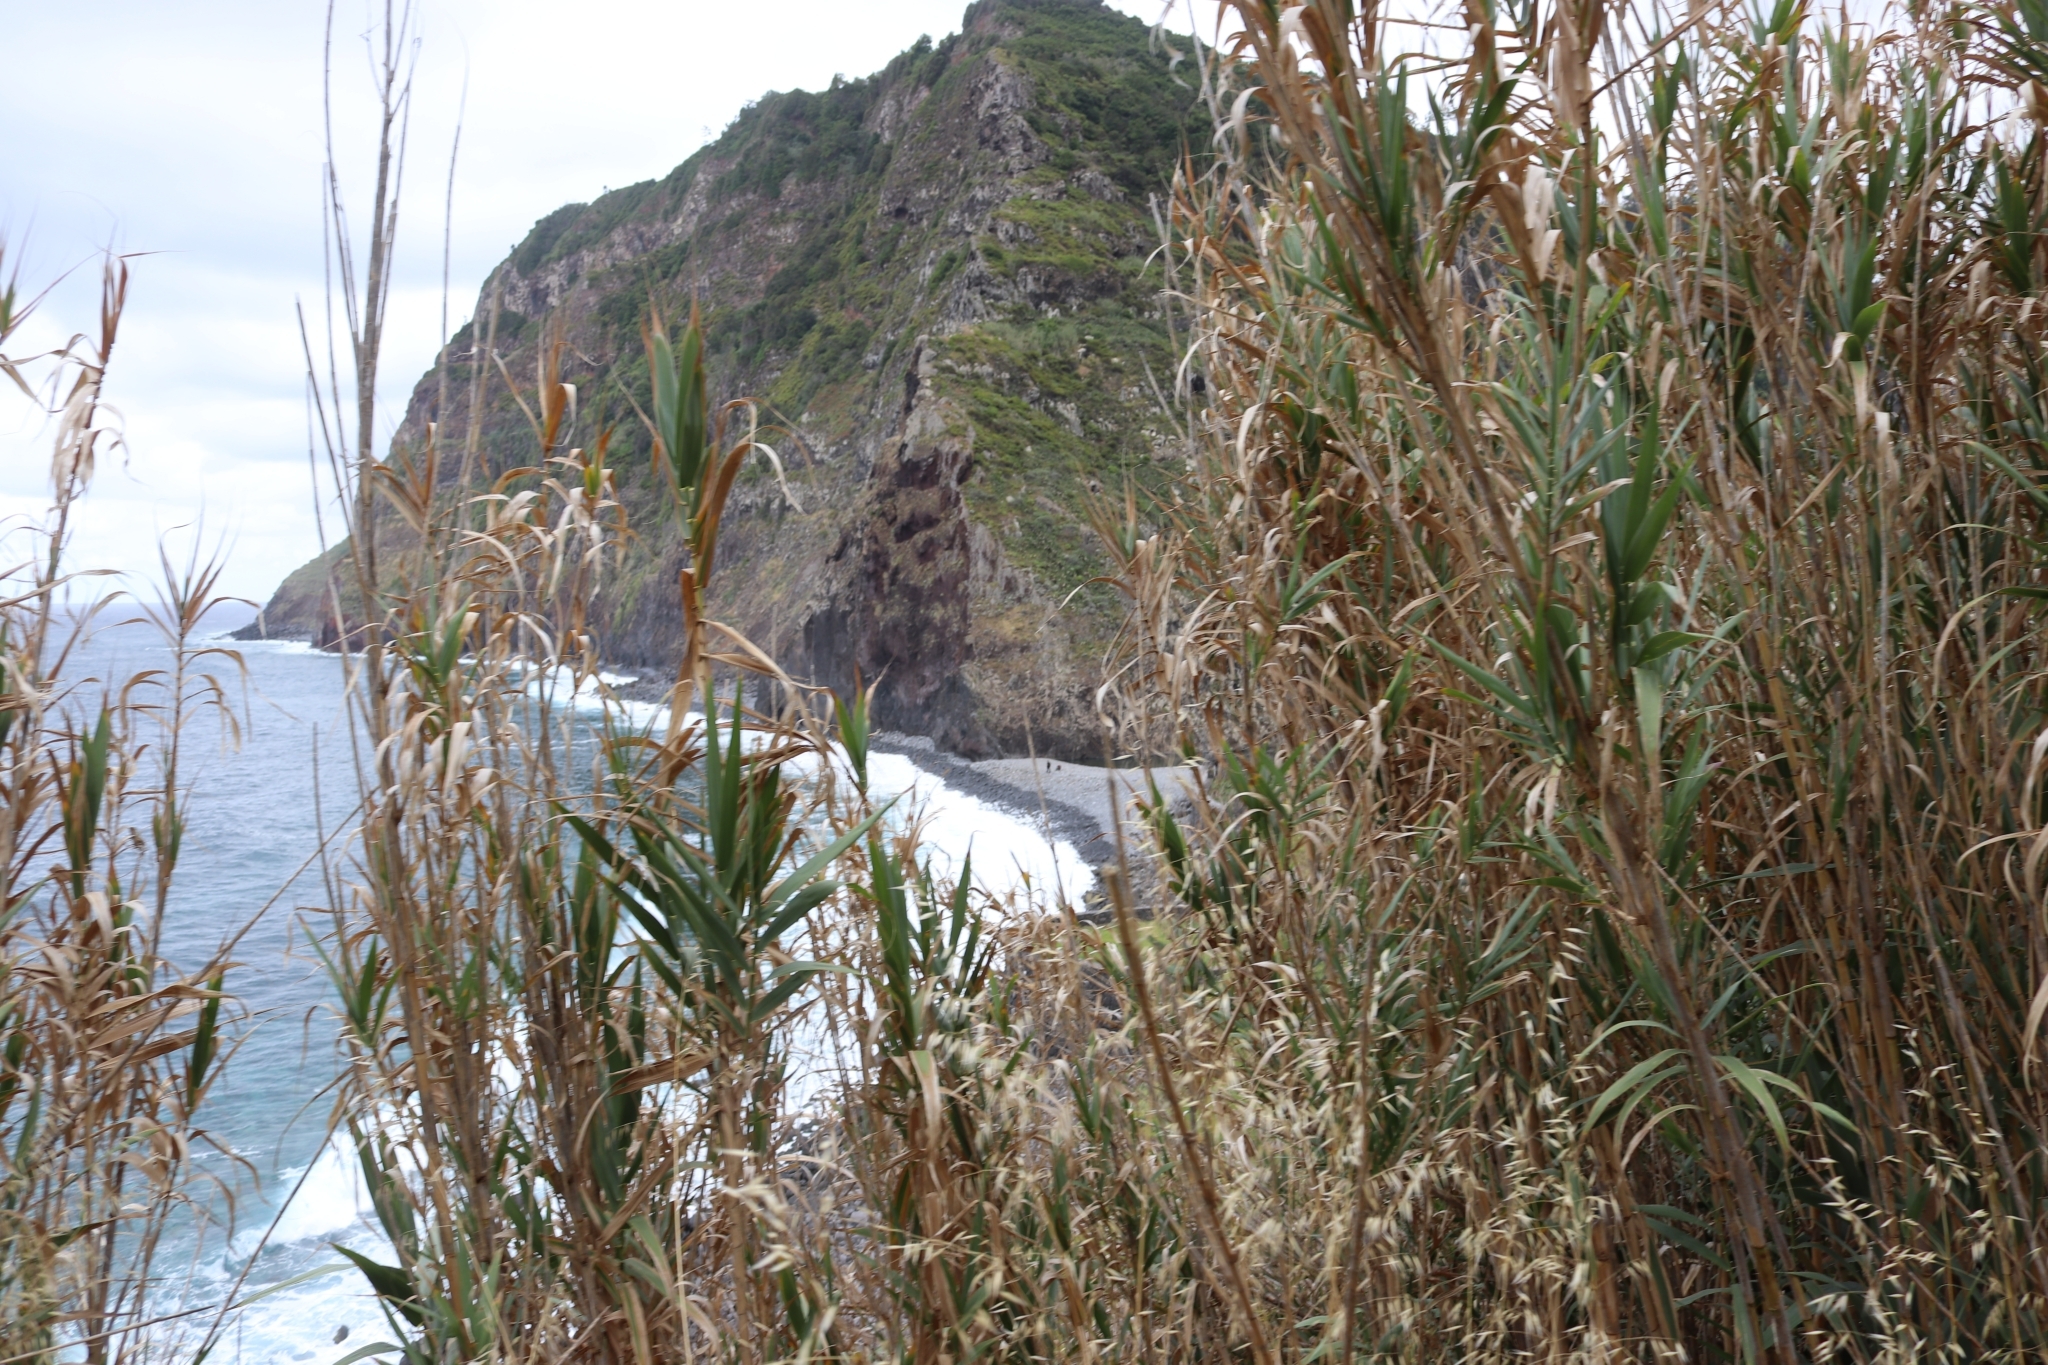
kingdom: Plantae
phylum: Tracheophyta
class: Liliopsida
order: Poales
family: Poaceae
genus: Arundo
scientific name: Arundo donax
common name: Giant reed
